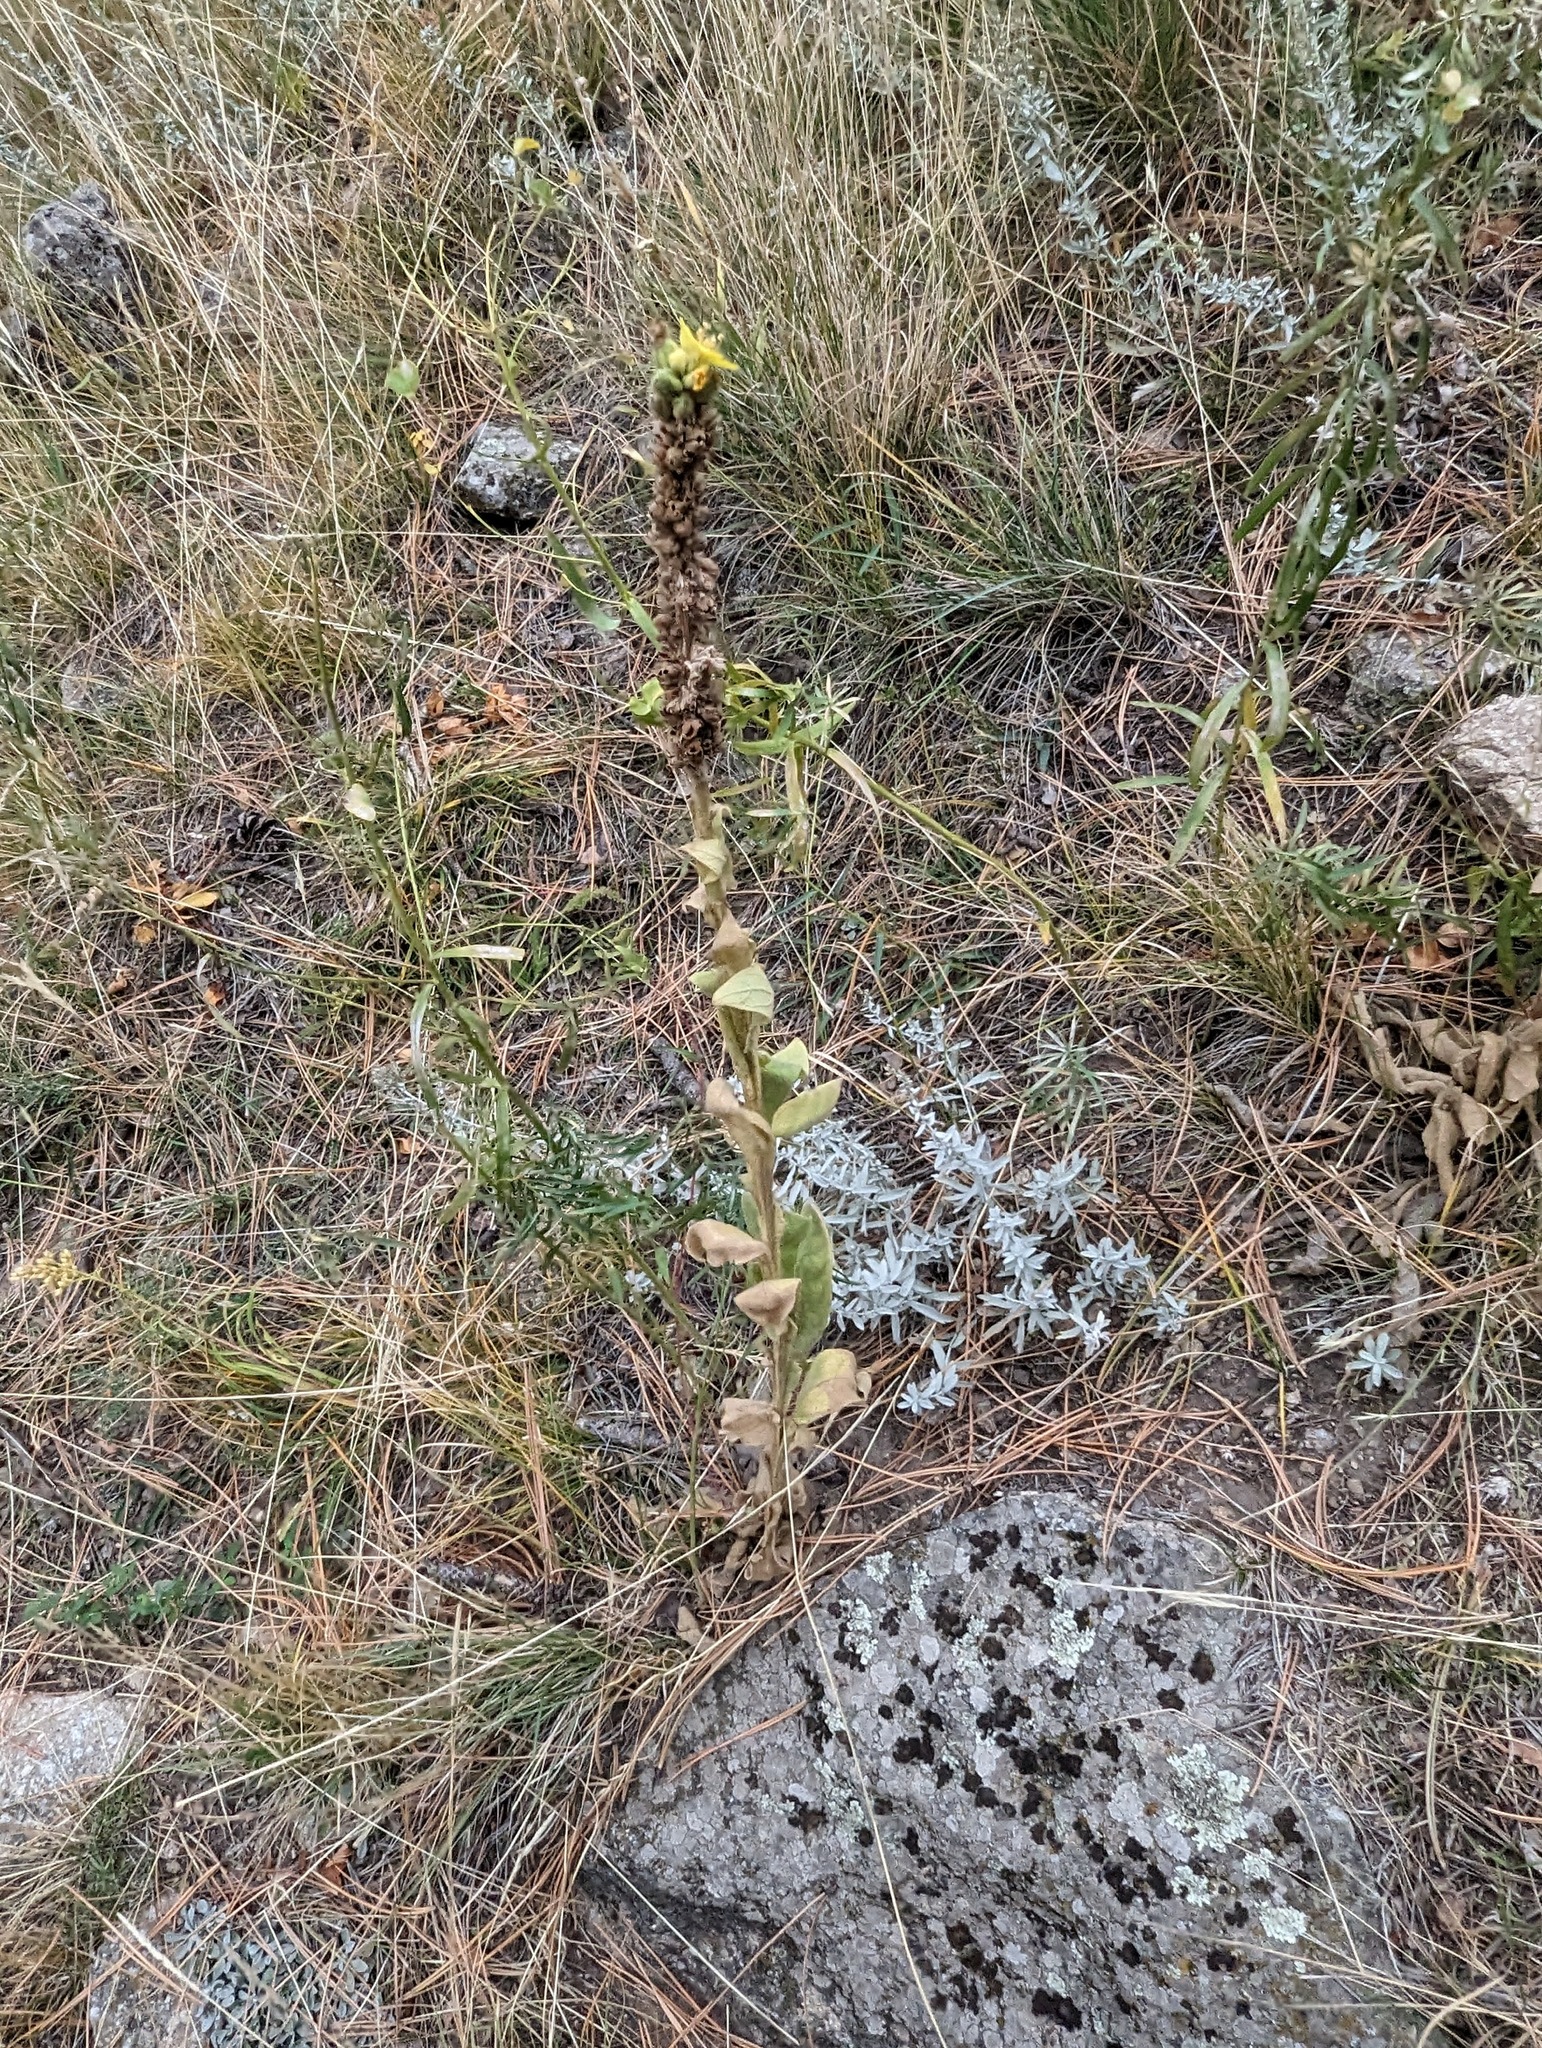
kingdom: Plantae
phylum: Tracheophyta
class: Magnoliopsida
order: Lamiales
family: Scrophulariaceae
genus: Verbascum
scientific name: Verbascum thapsus
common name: Common mullein
